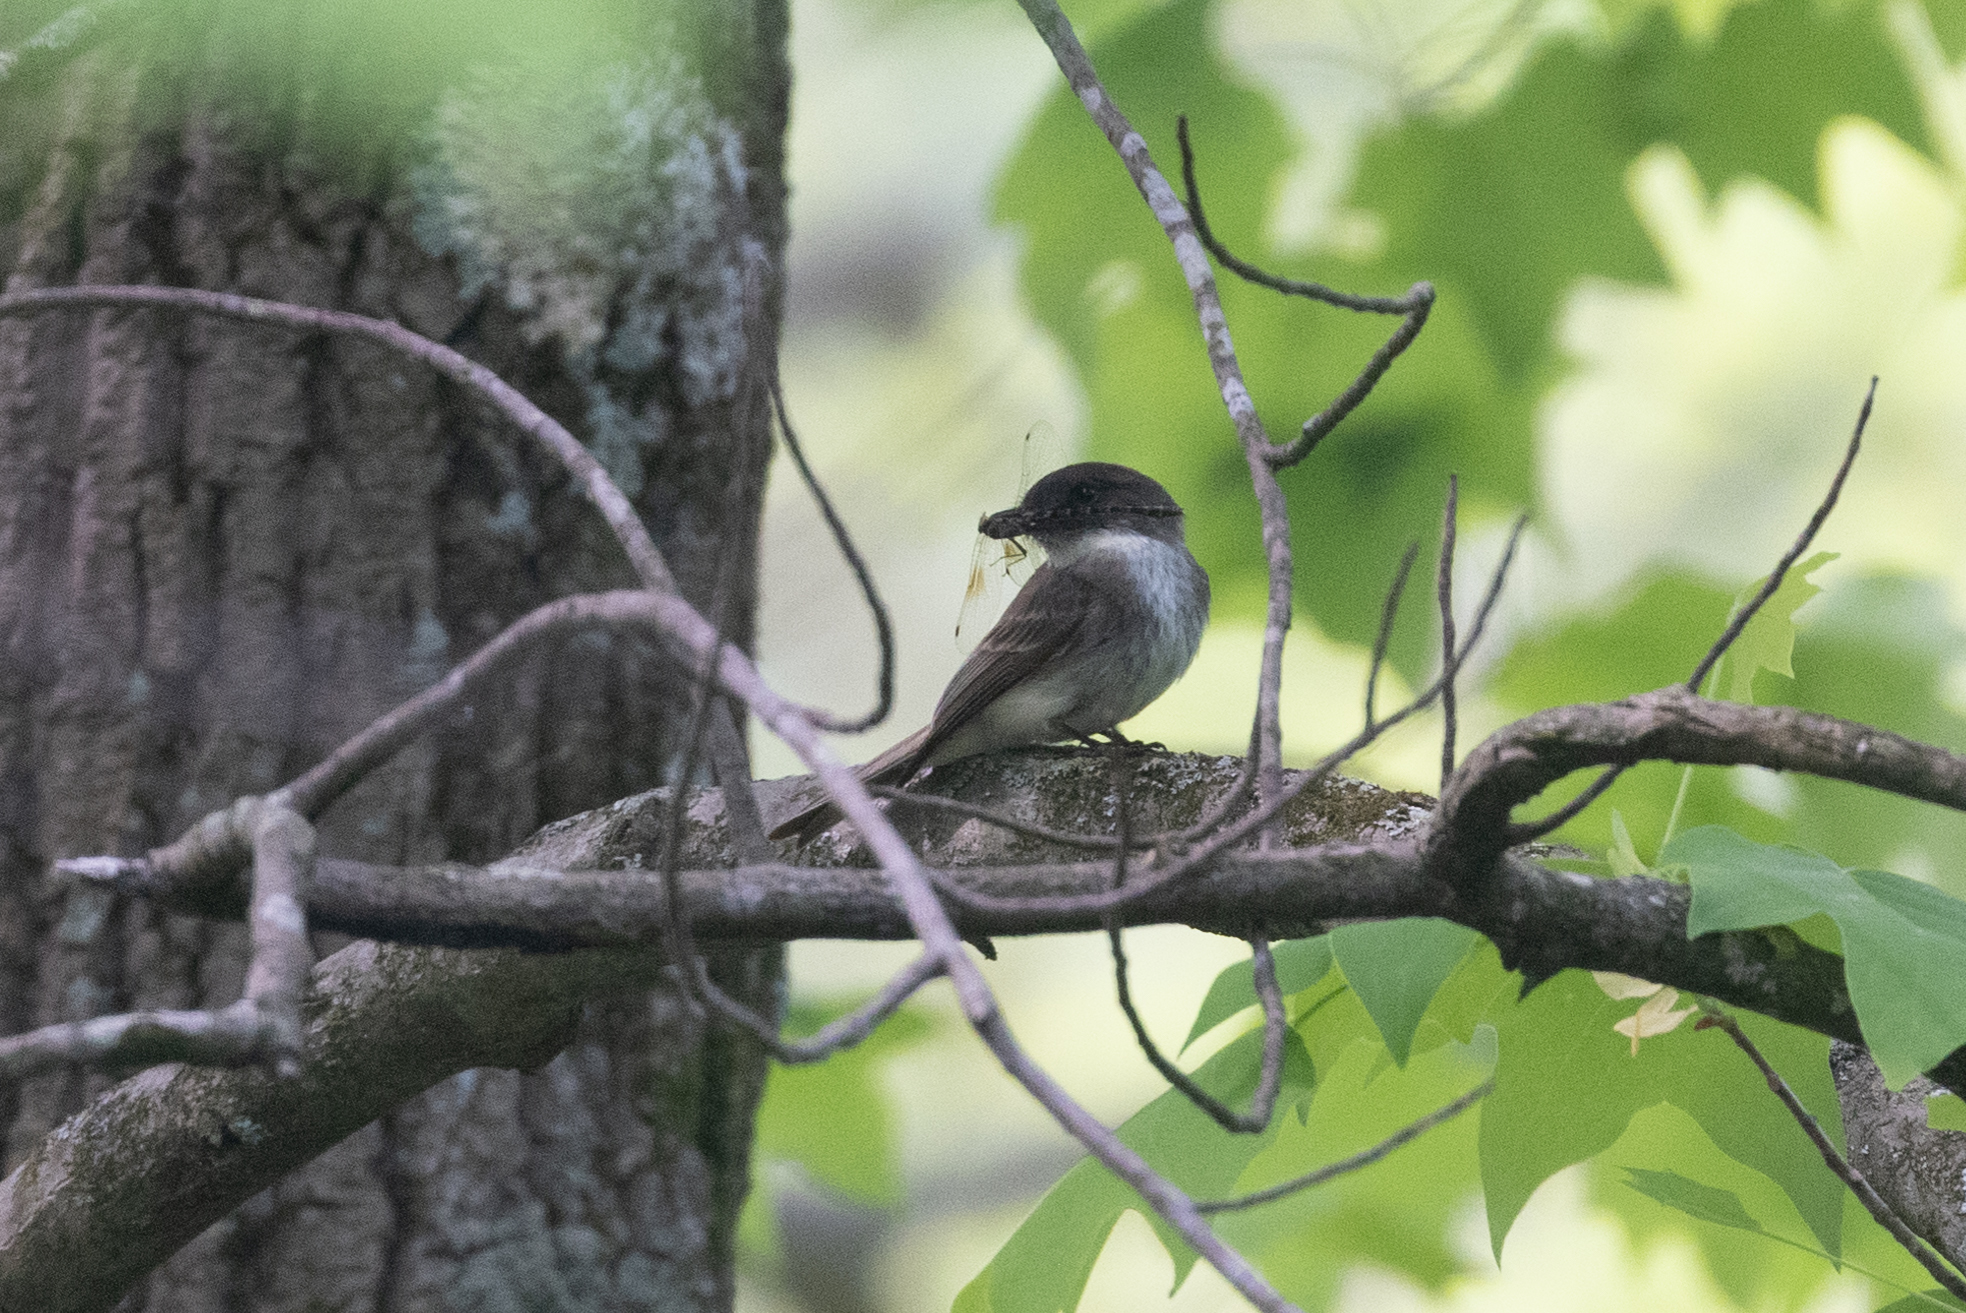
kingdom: Animalia
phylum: Chordata
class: Aves
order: Passeriformes
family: Tyrannidae
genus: Sayornis
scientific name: Sayornis phoebe
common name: Eastern phoebe
